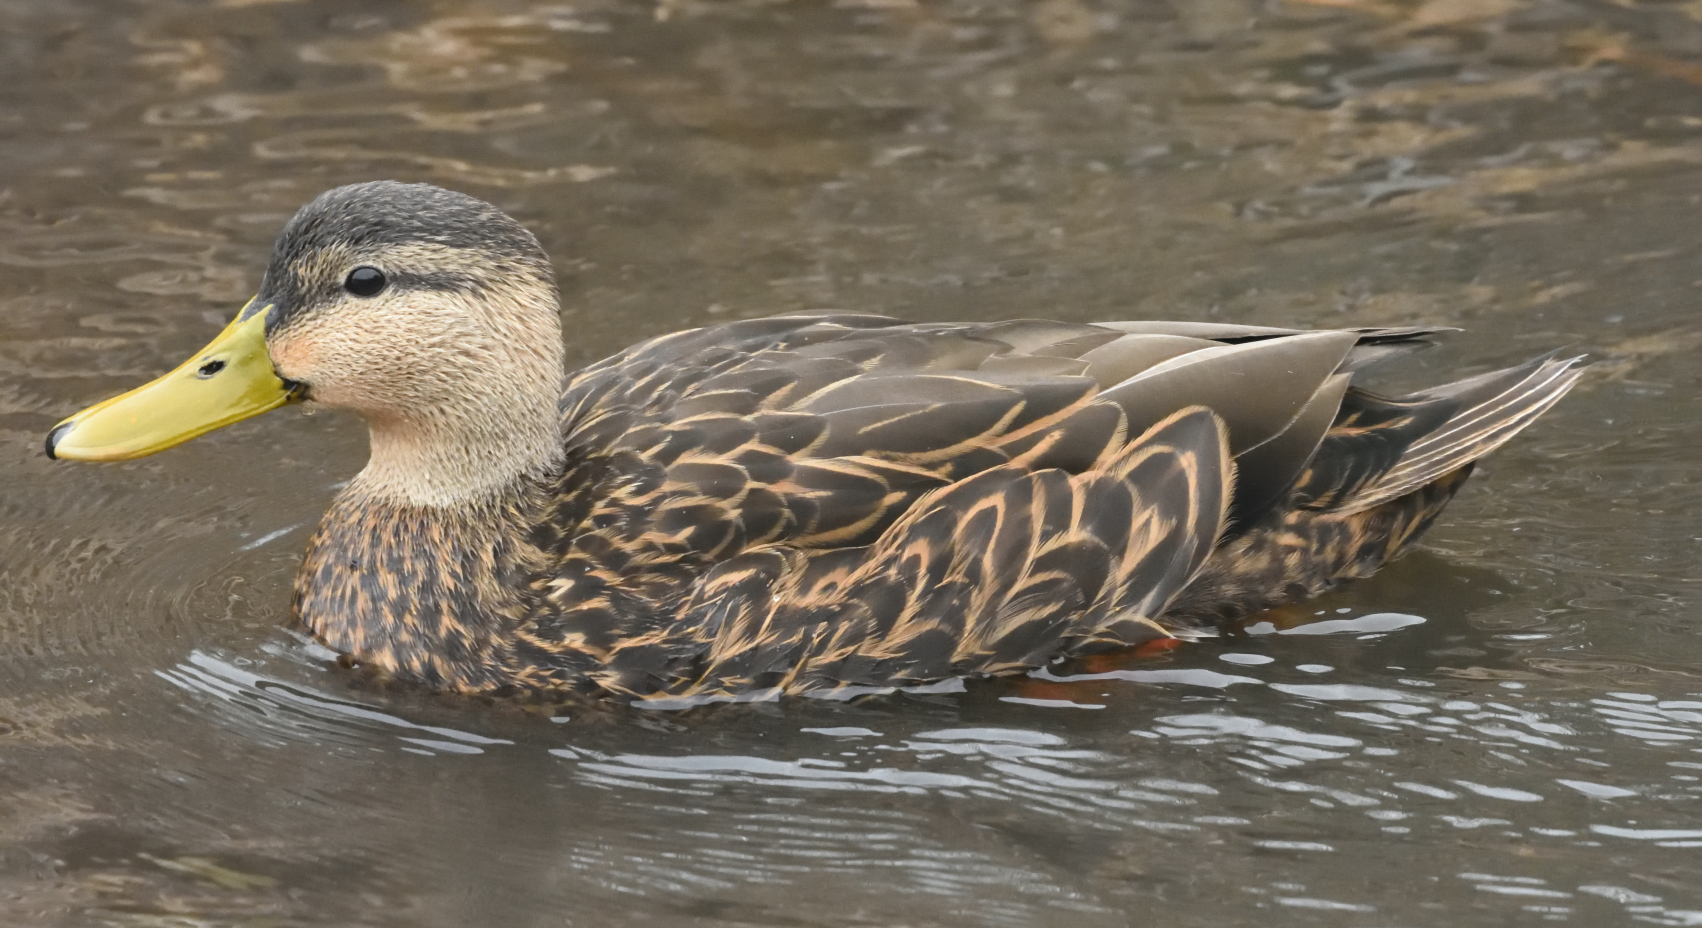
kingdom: Animalia
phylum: Chordata
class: Aves
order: Anseriformes
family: Anatidae
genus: Anas
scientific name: Anas fulvigula
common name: Mottled duck
